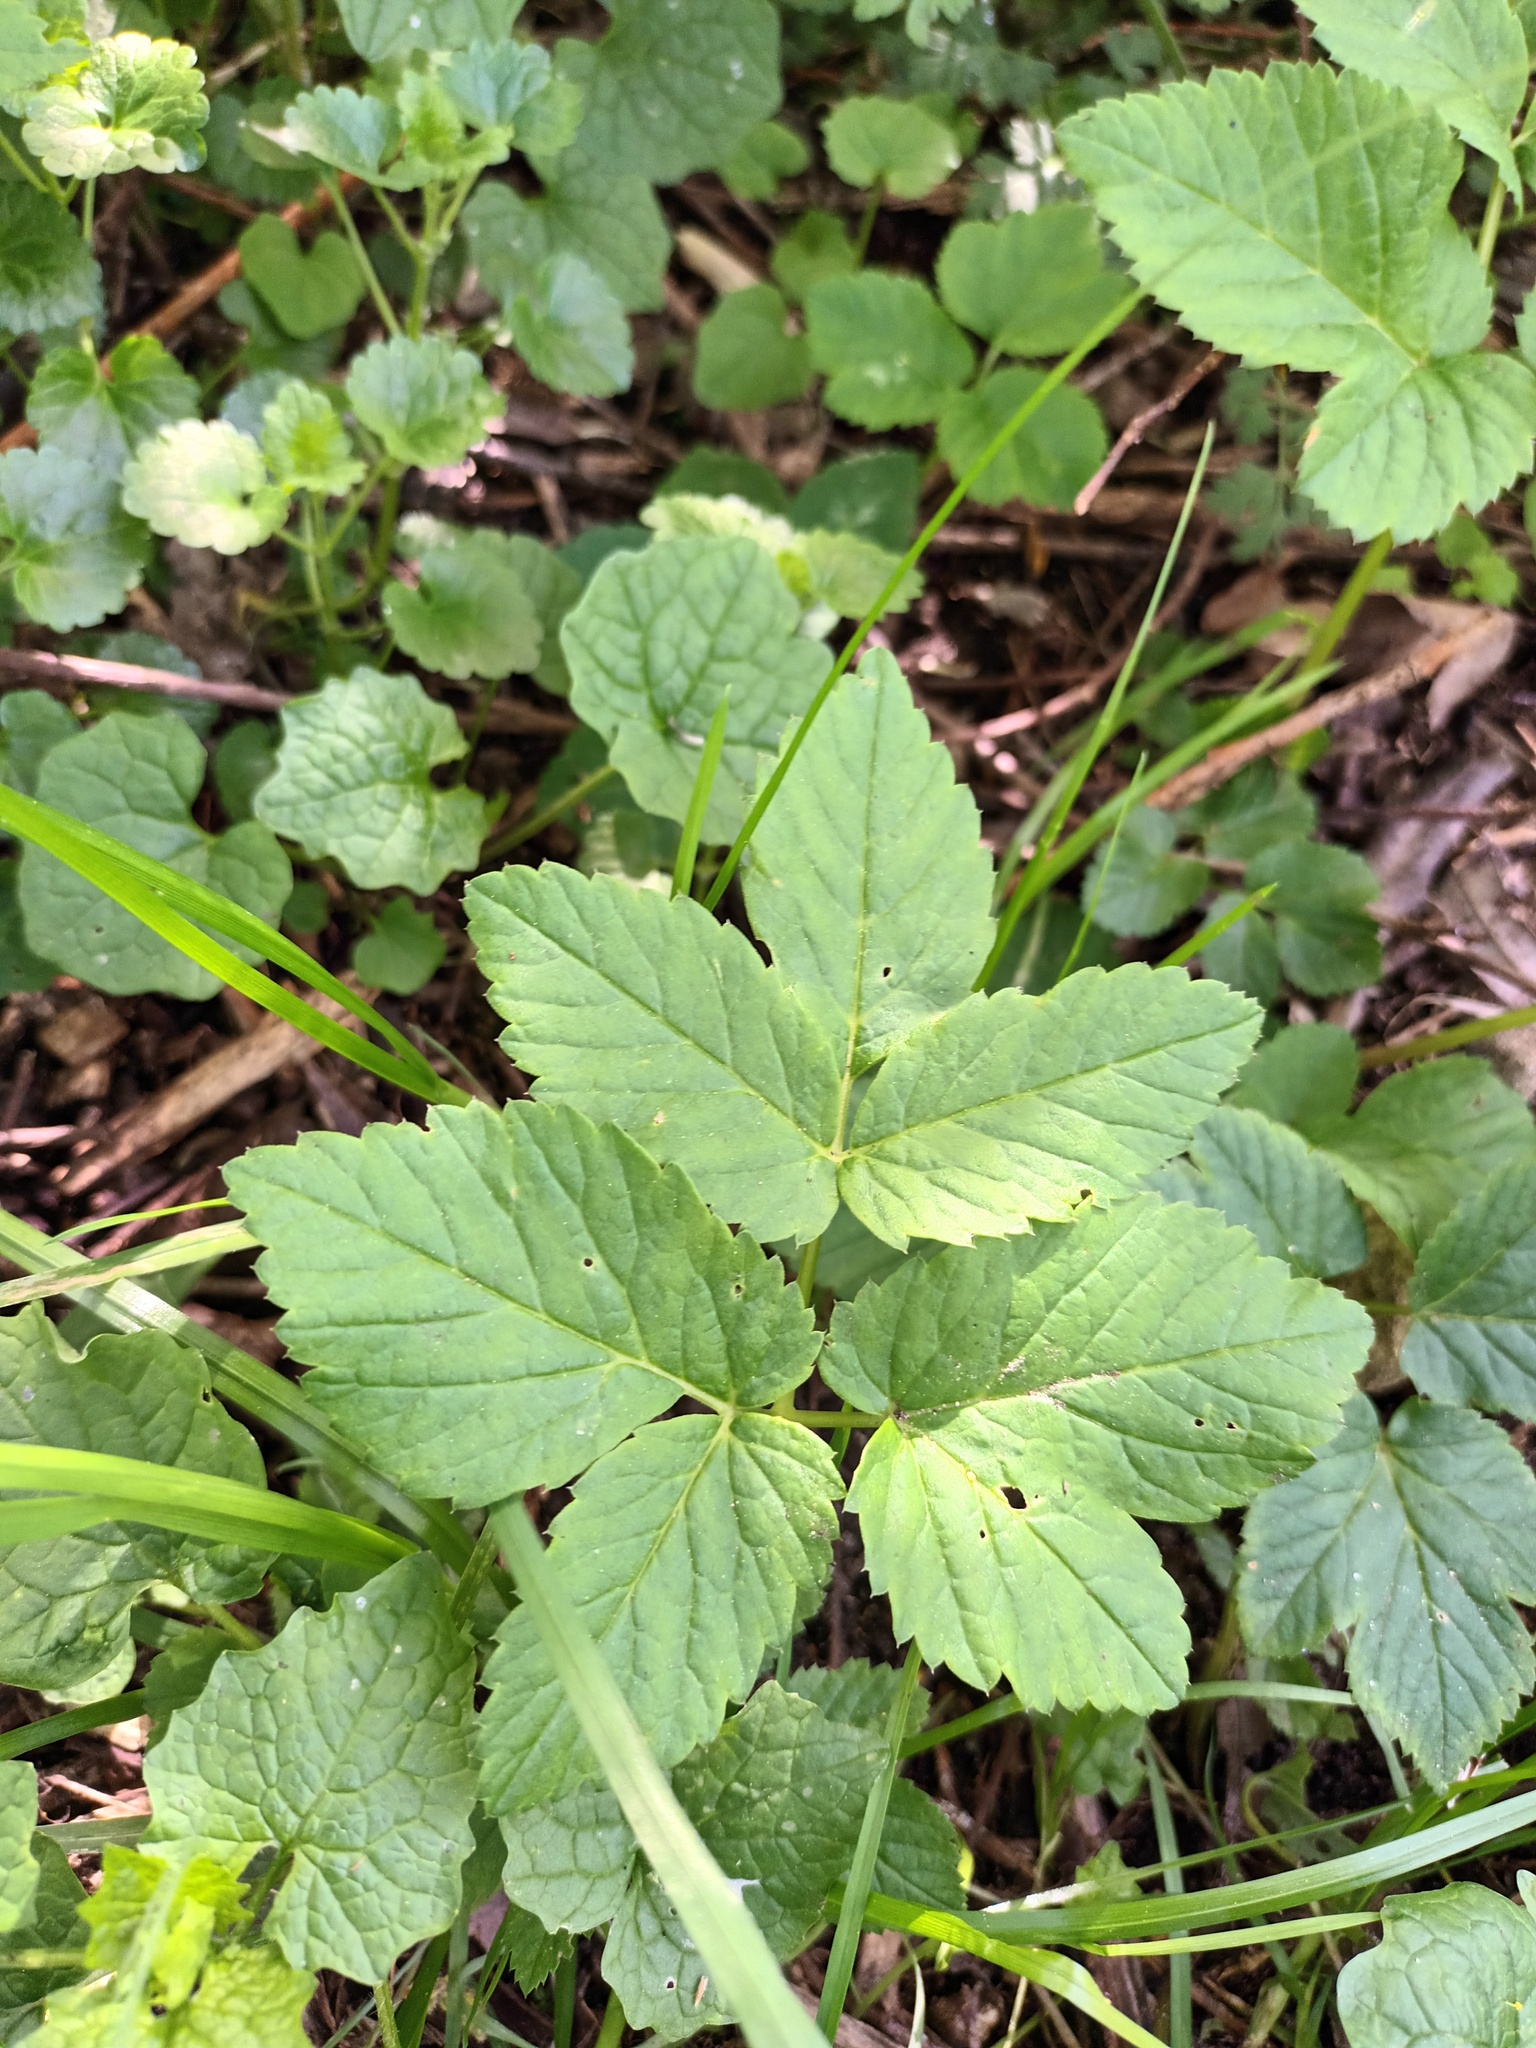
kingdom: Plantae
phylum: Tracheophyta
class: Magnoliopsida
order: Apiales
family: Apiaceae
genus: Aegopodium
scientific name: Aegopodium podagraria
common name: Ground-elder
